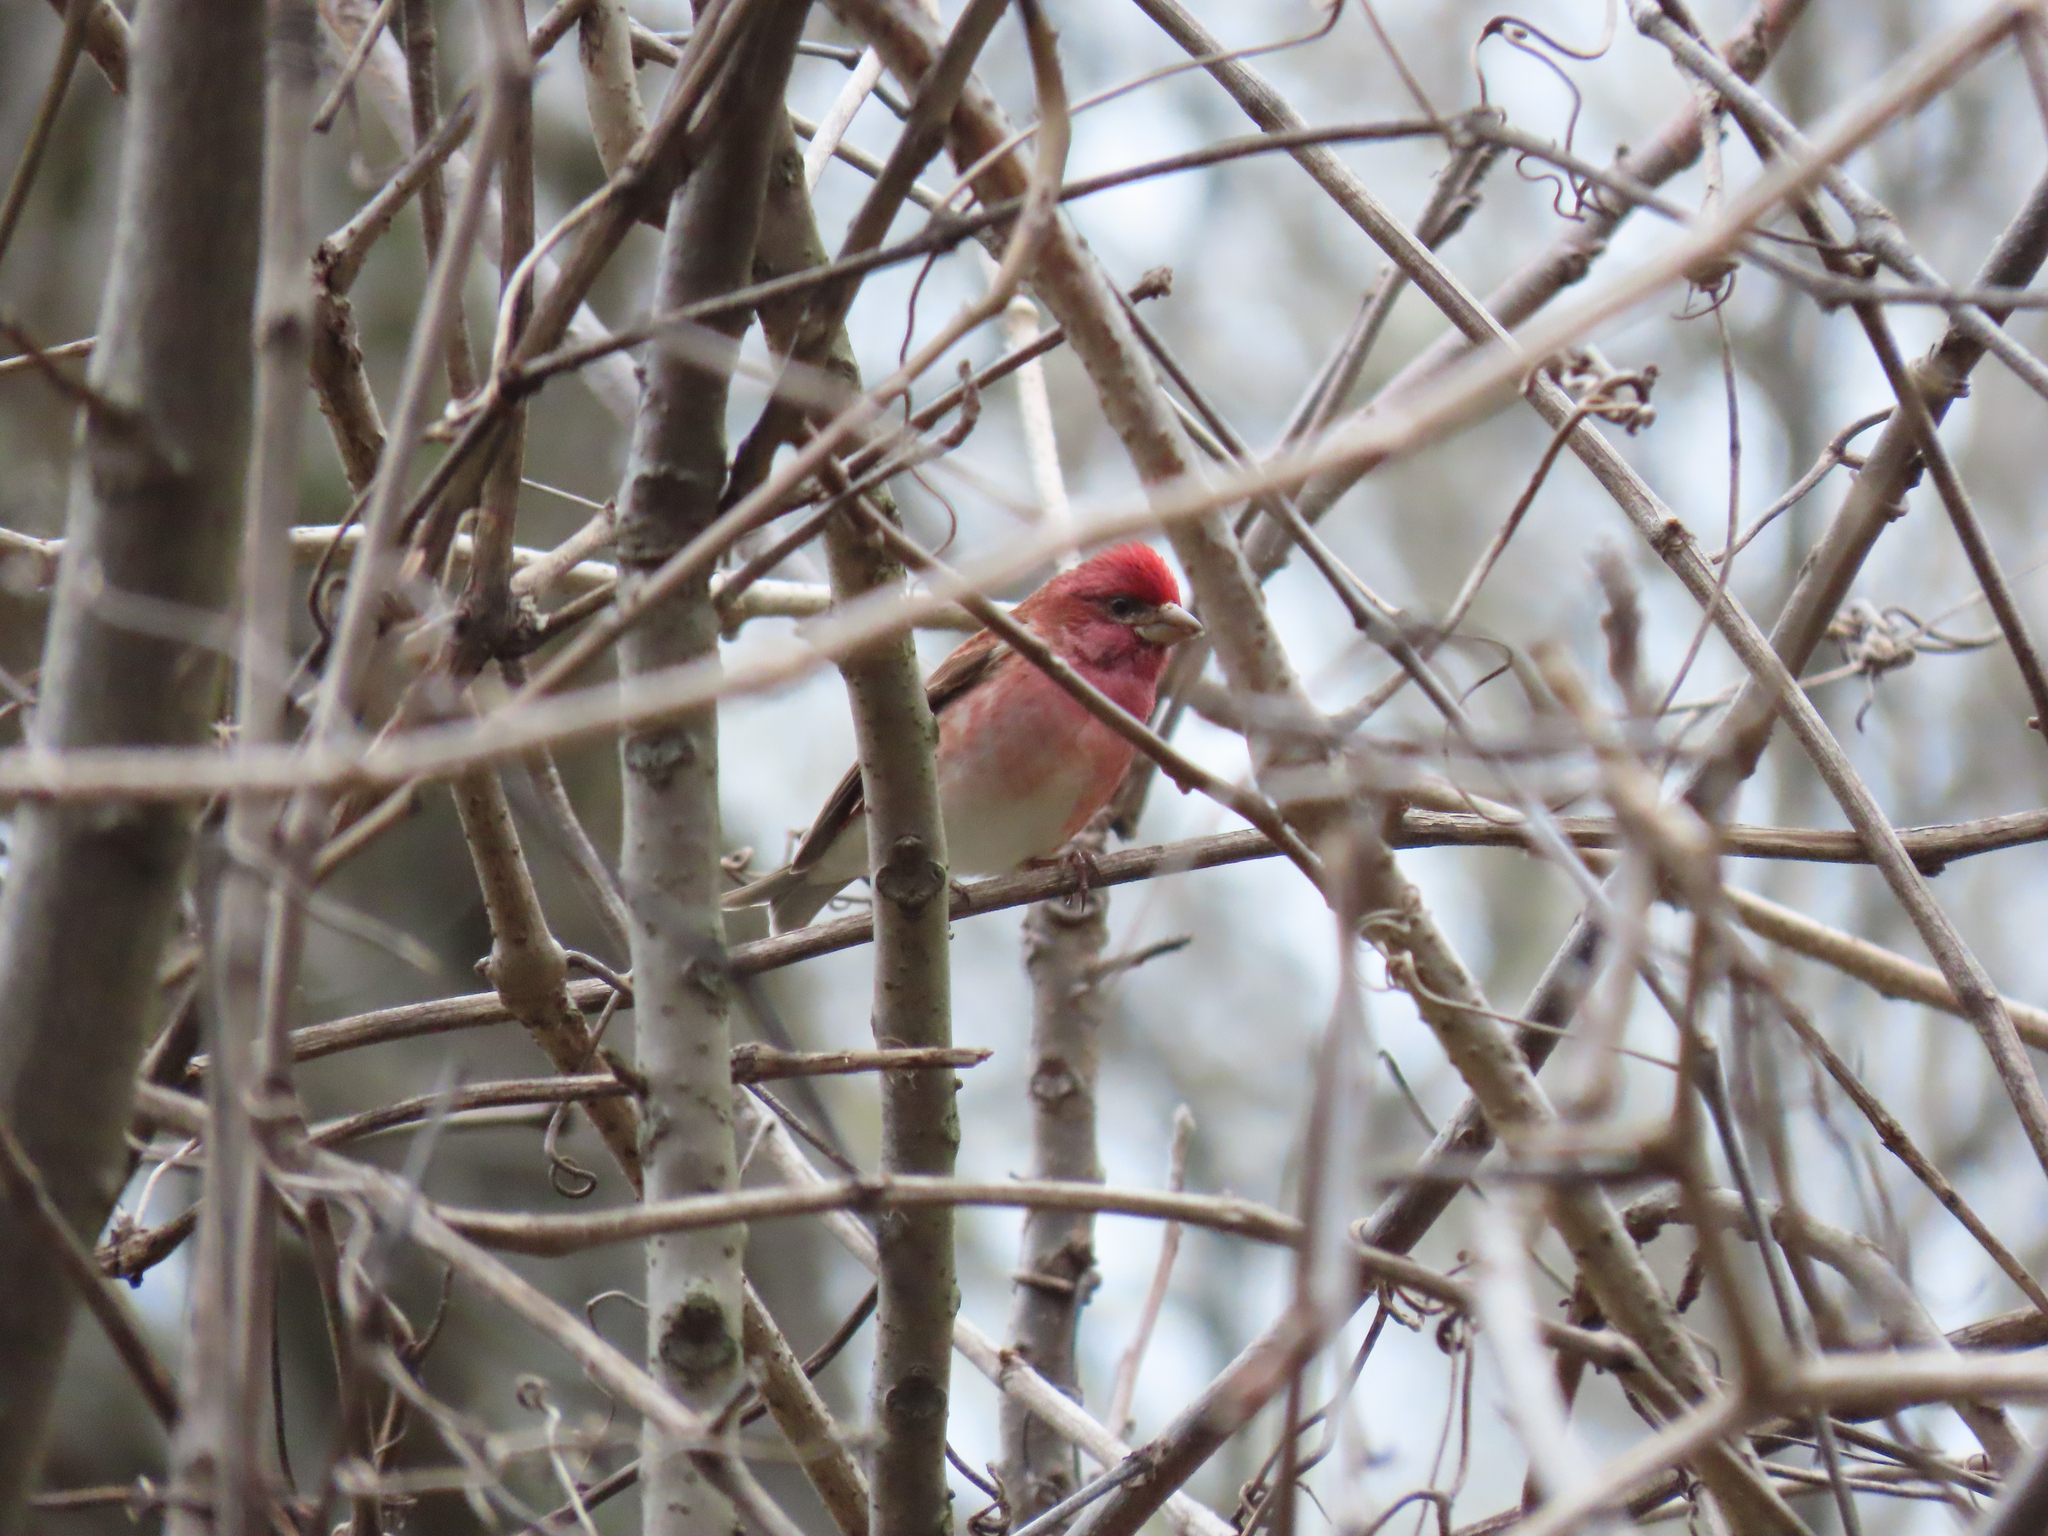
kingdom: Animalia
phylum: Chordata
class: Aves
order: Passeriformes
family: Fringillidae
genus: Haemorhous
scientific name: Haemorhous purpureus
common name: Purple finch
